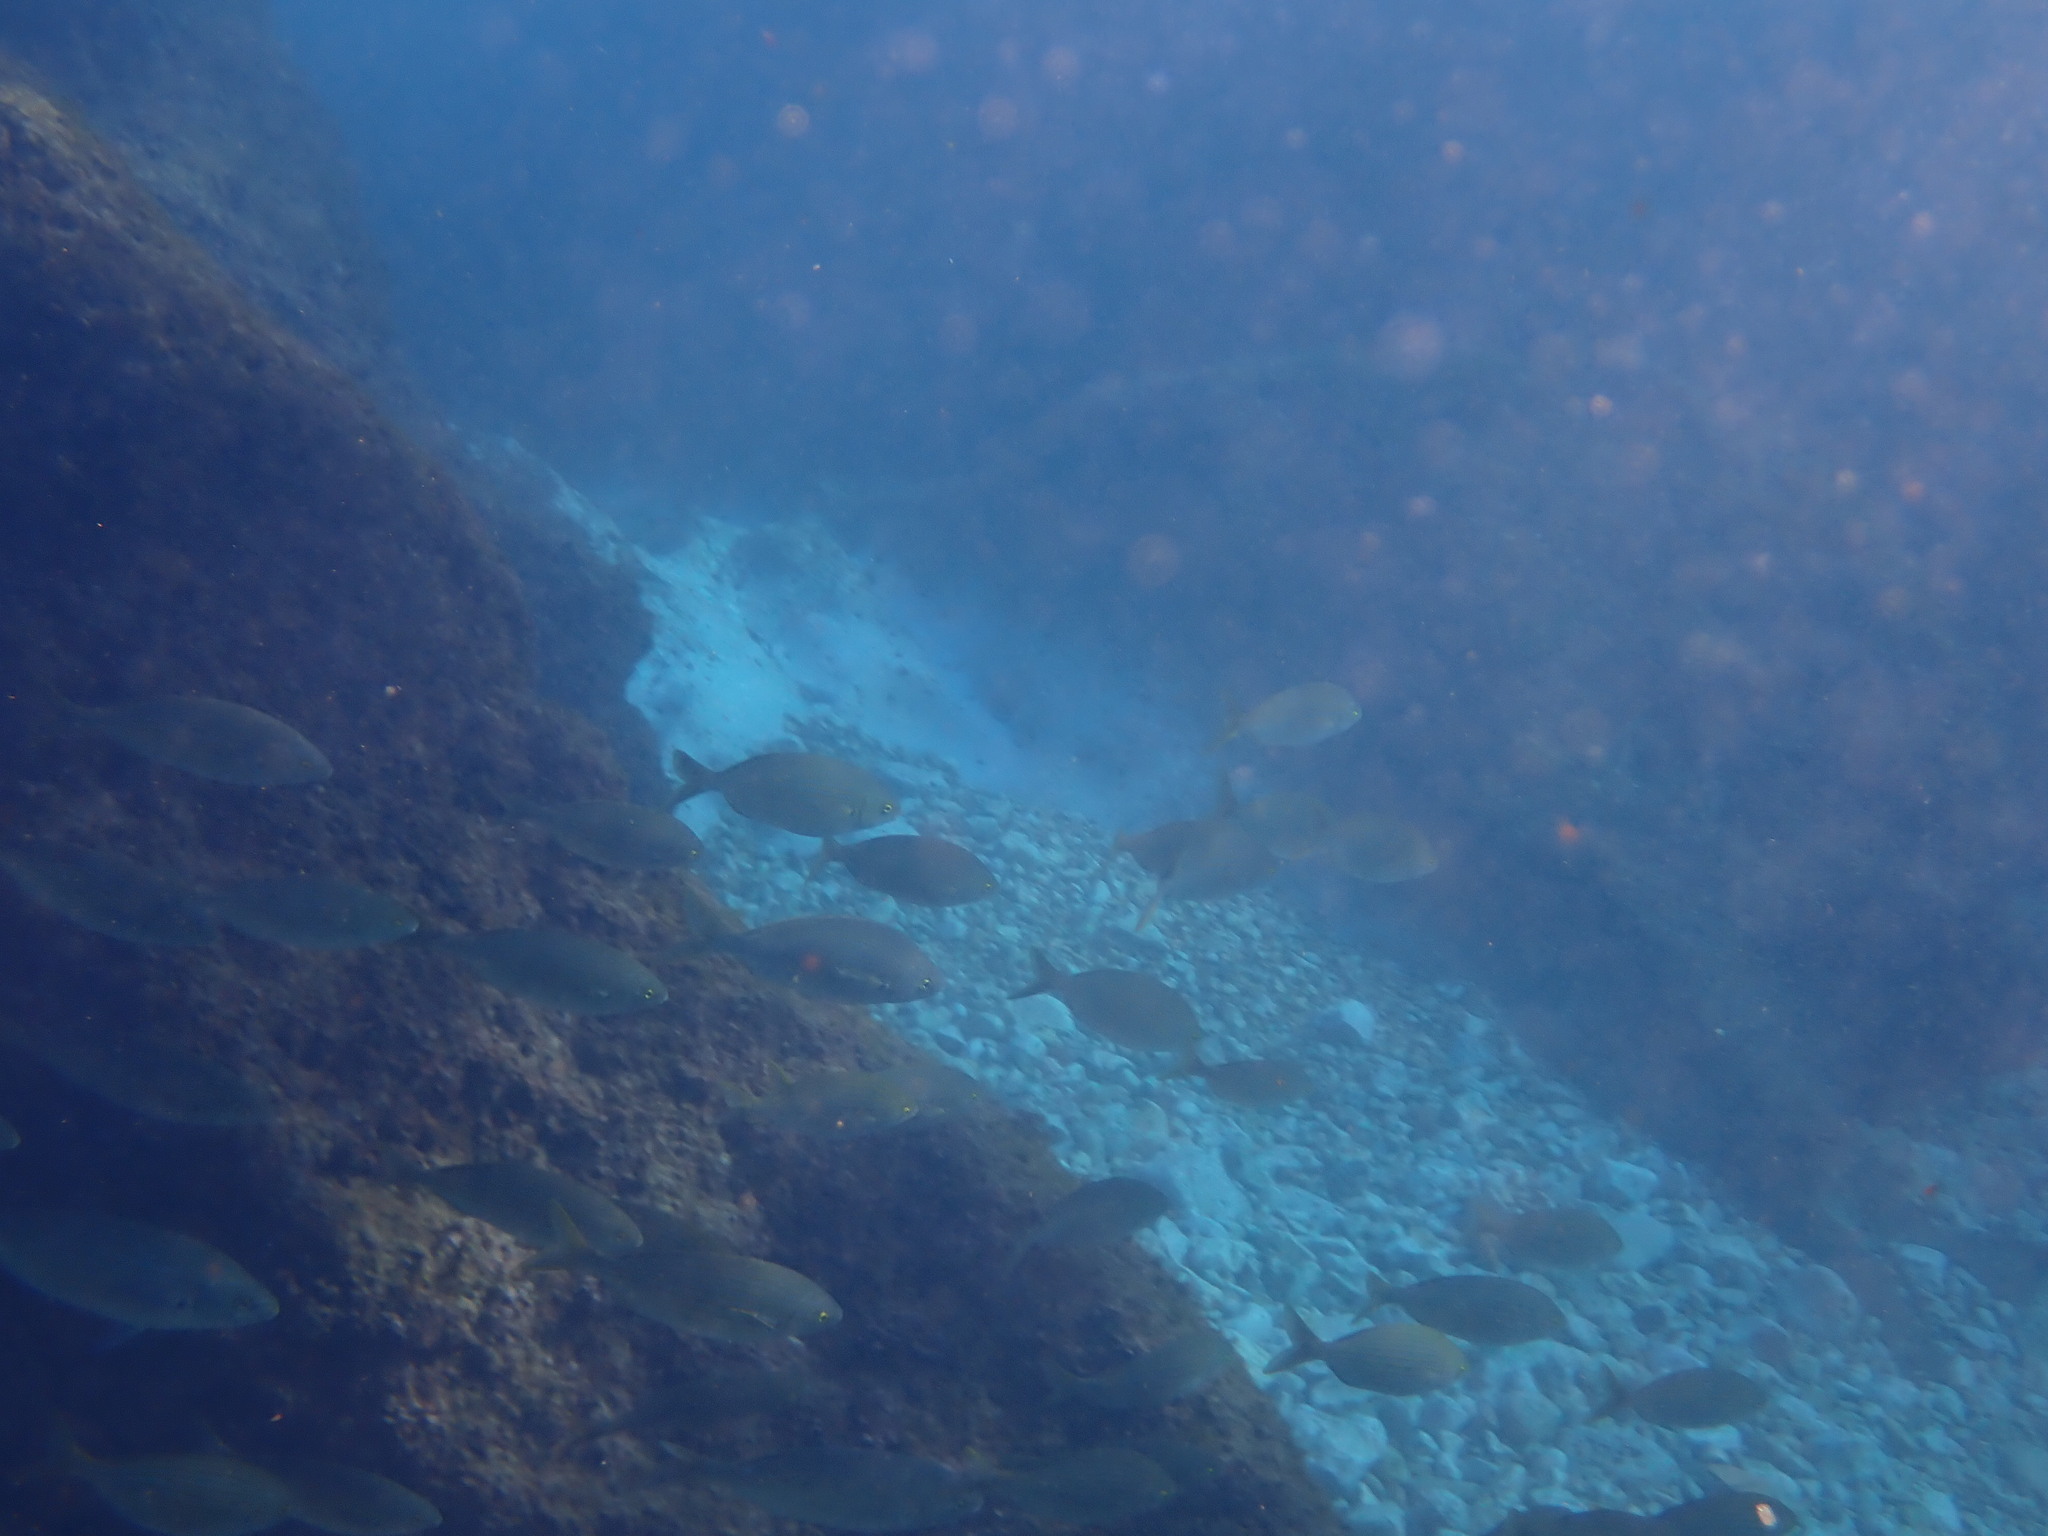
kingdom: Animalia
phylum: Chordata
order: Perciformes
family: Sparidae
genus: Sarpa
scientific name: Sarpa salpa
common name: Salema
